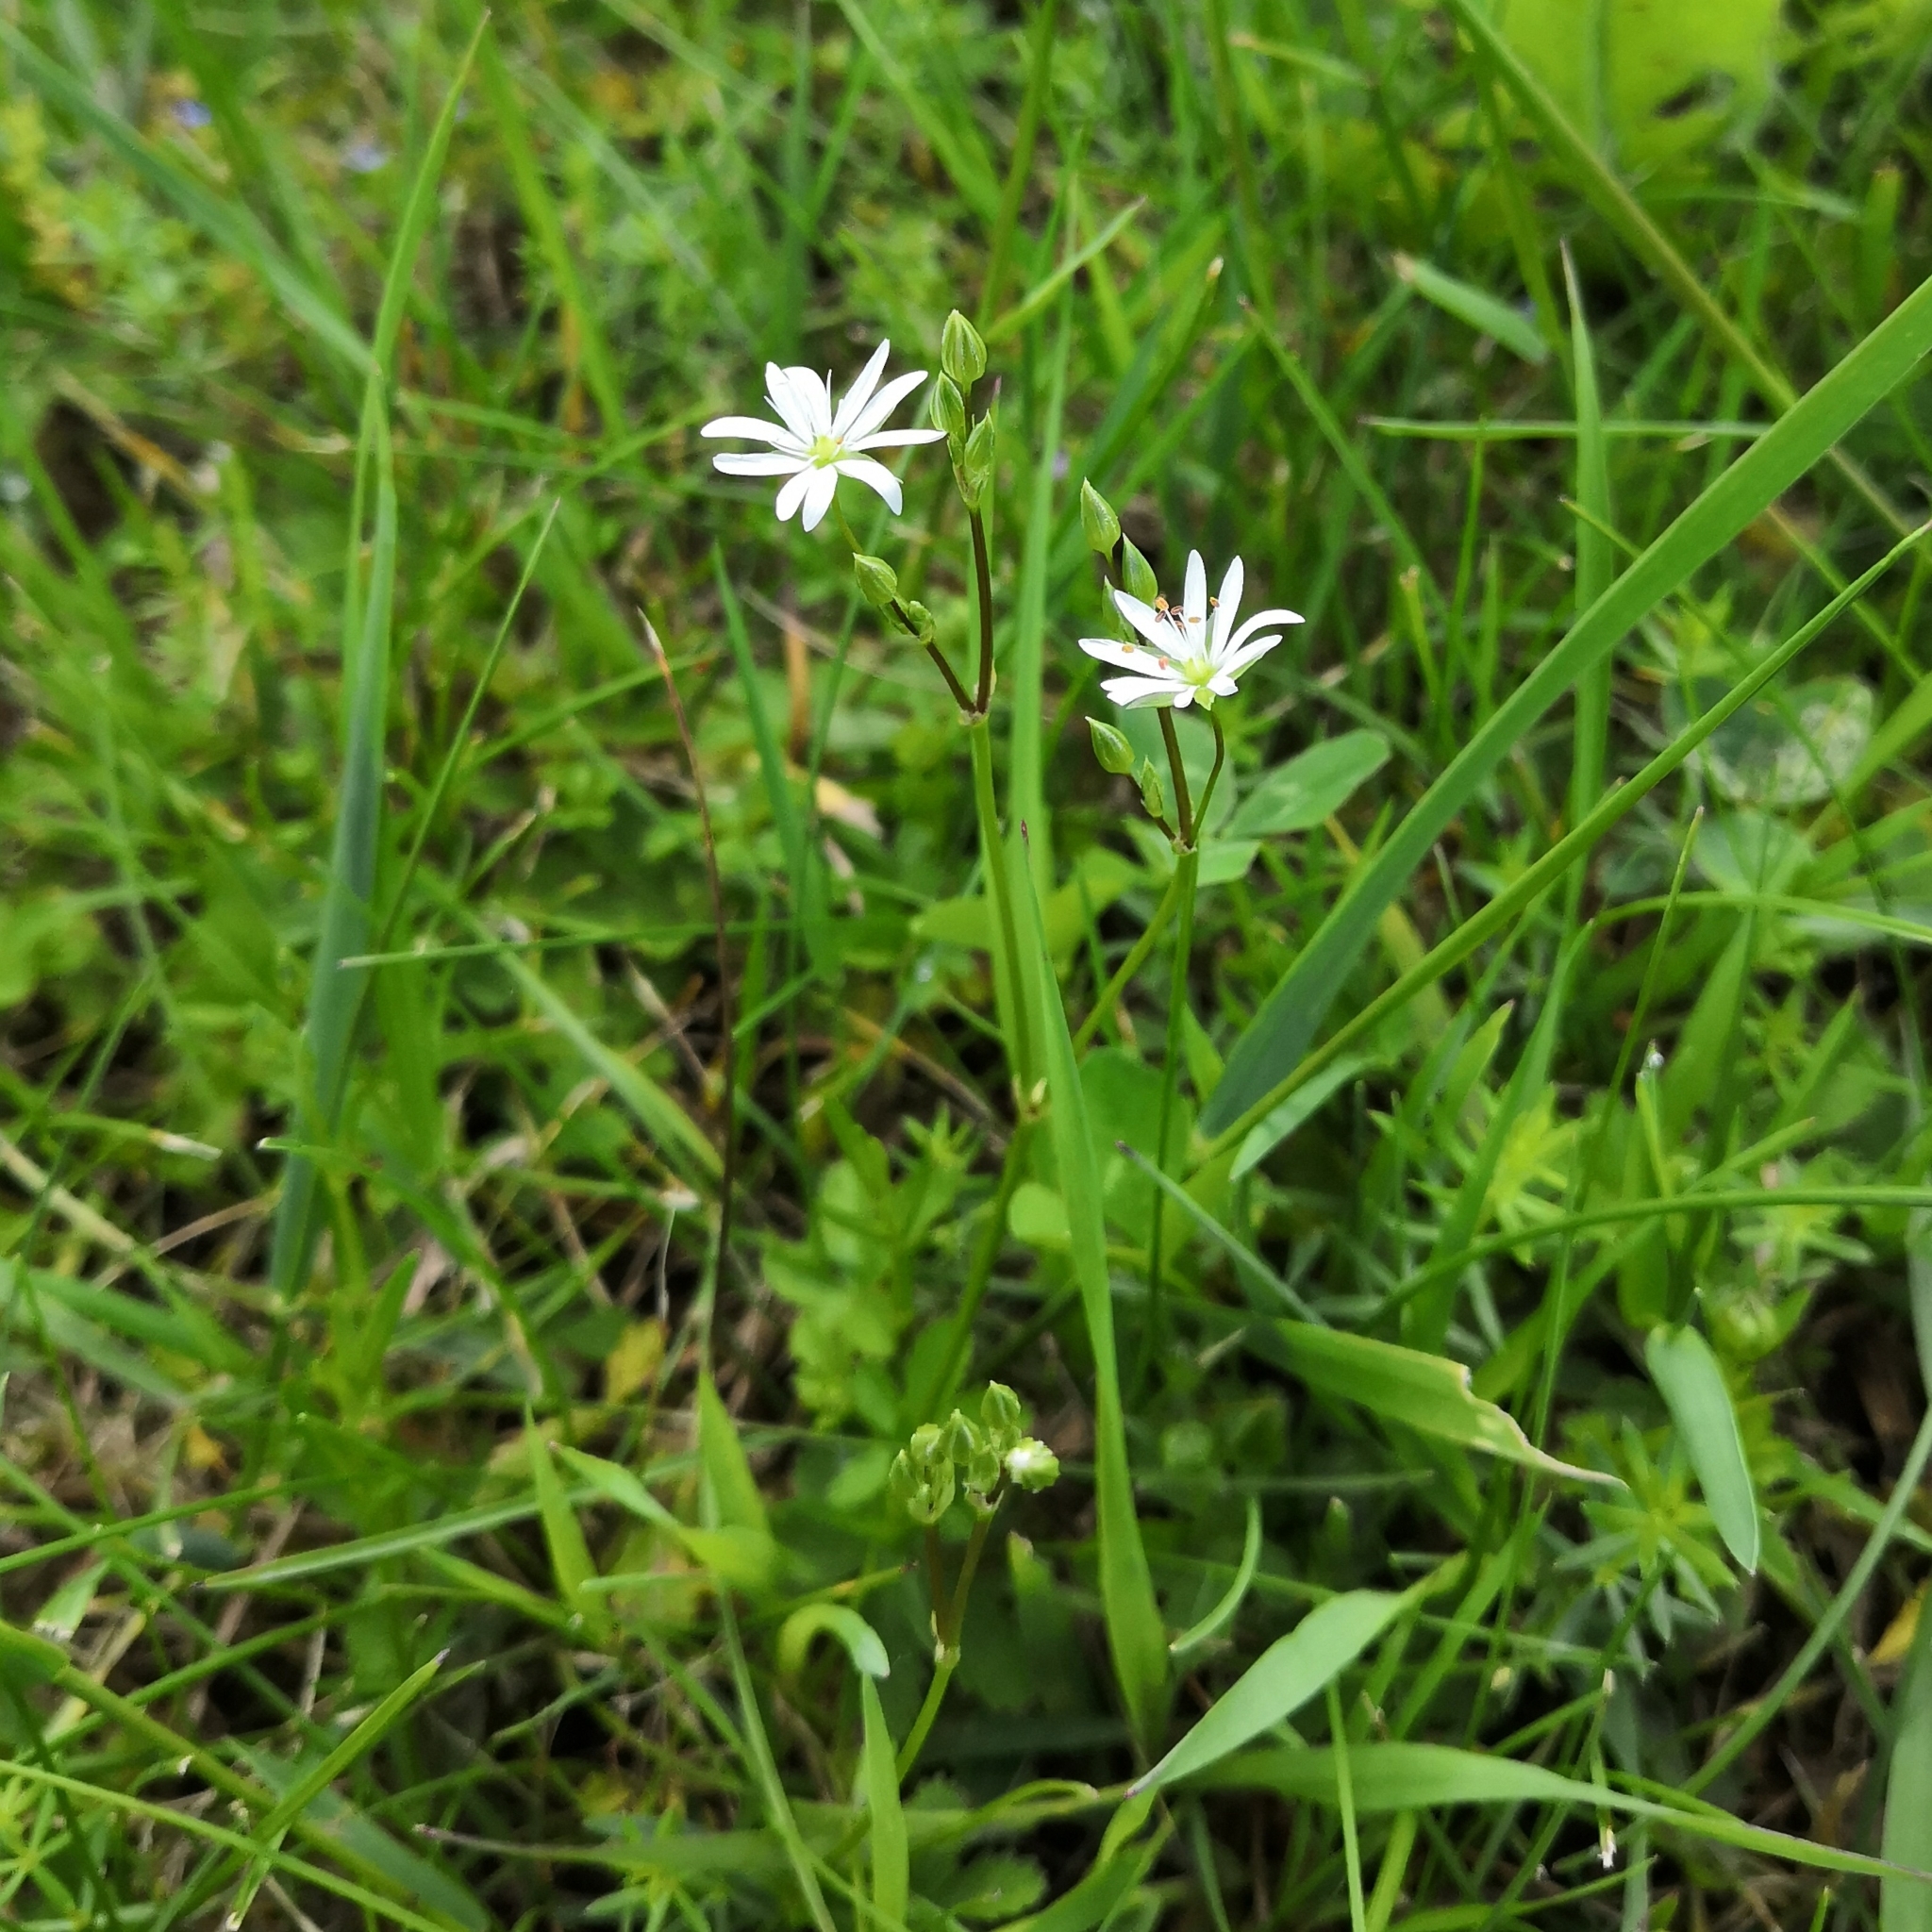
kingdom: Plantae
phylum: Tracheophyta
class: Magnoliopsida
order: Caryophyllales
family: Caryophyllaceae
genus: Stellaria
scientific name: Stellaria graminea
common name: Grass-like starwort
